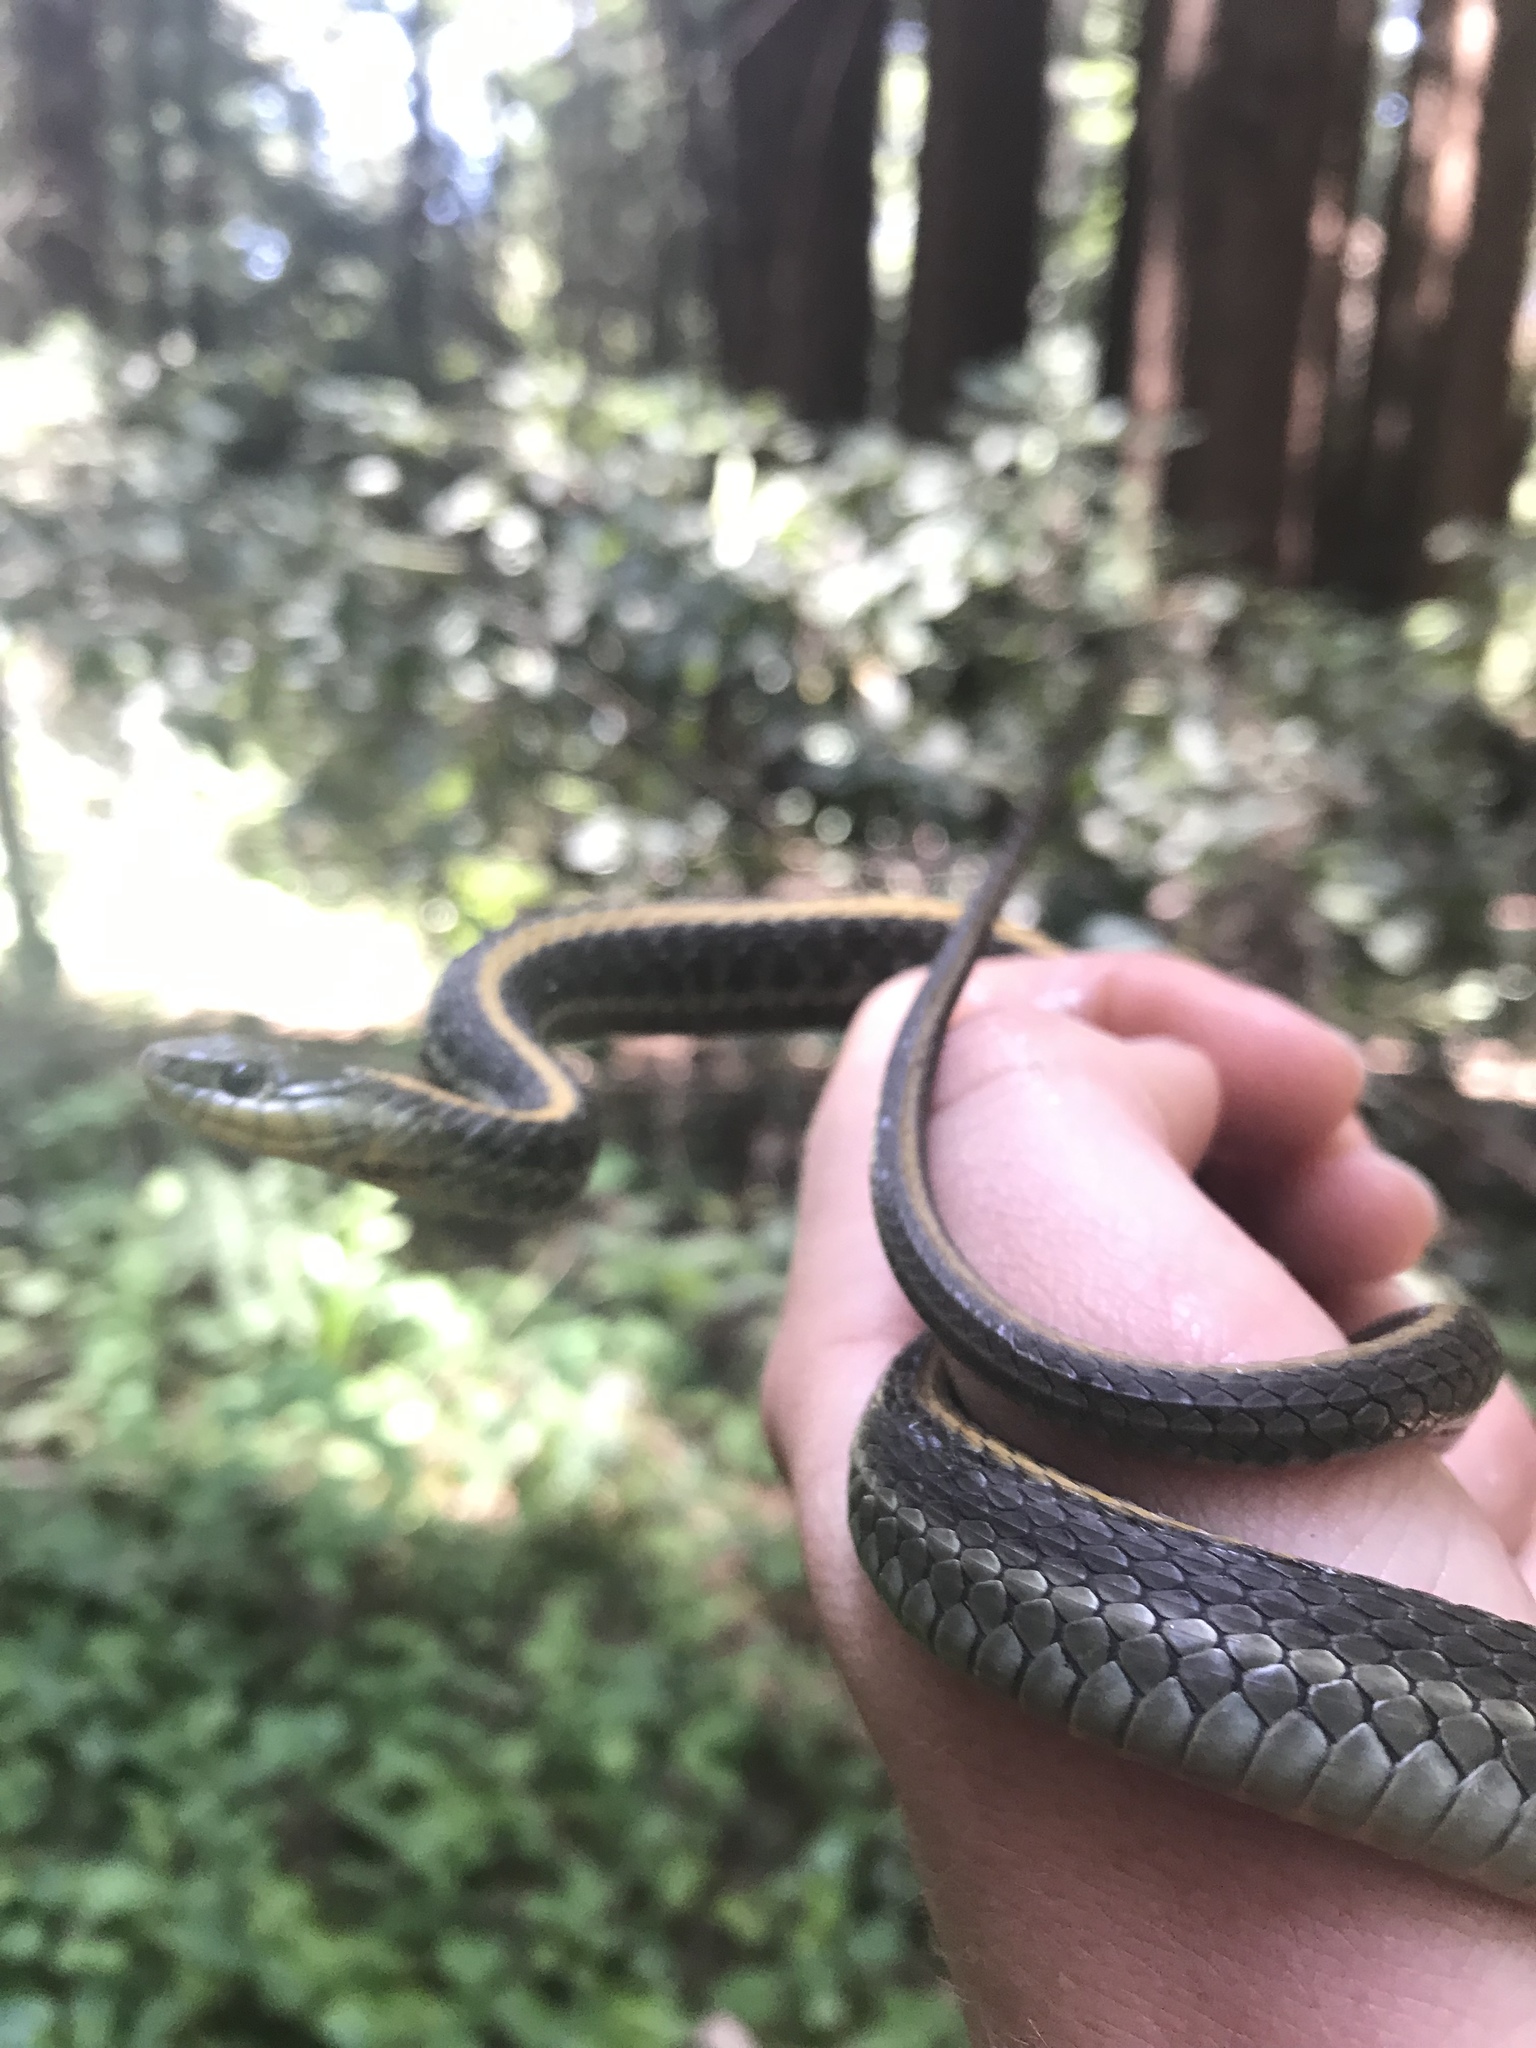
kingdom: Animalia
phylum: Chordata
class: Squamata
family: Colubridae
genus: Thamnophis
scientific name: Thamnophis atratus
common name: Pacific coast aquatic garter snake
